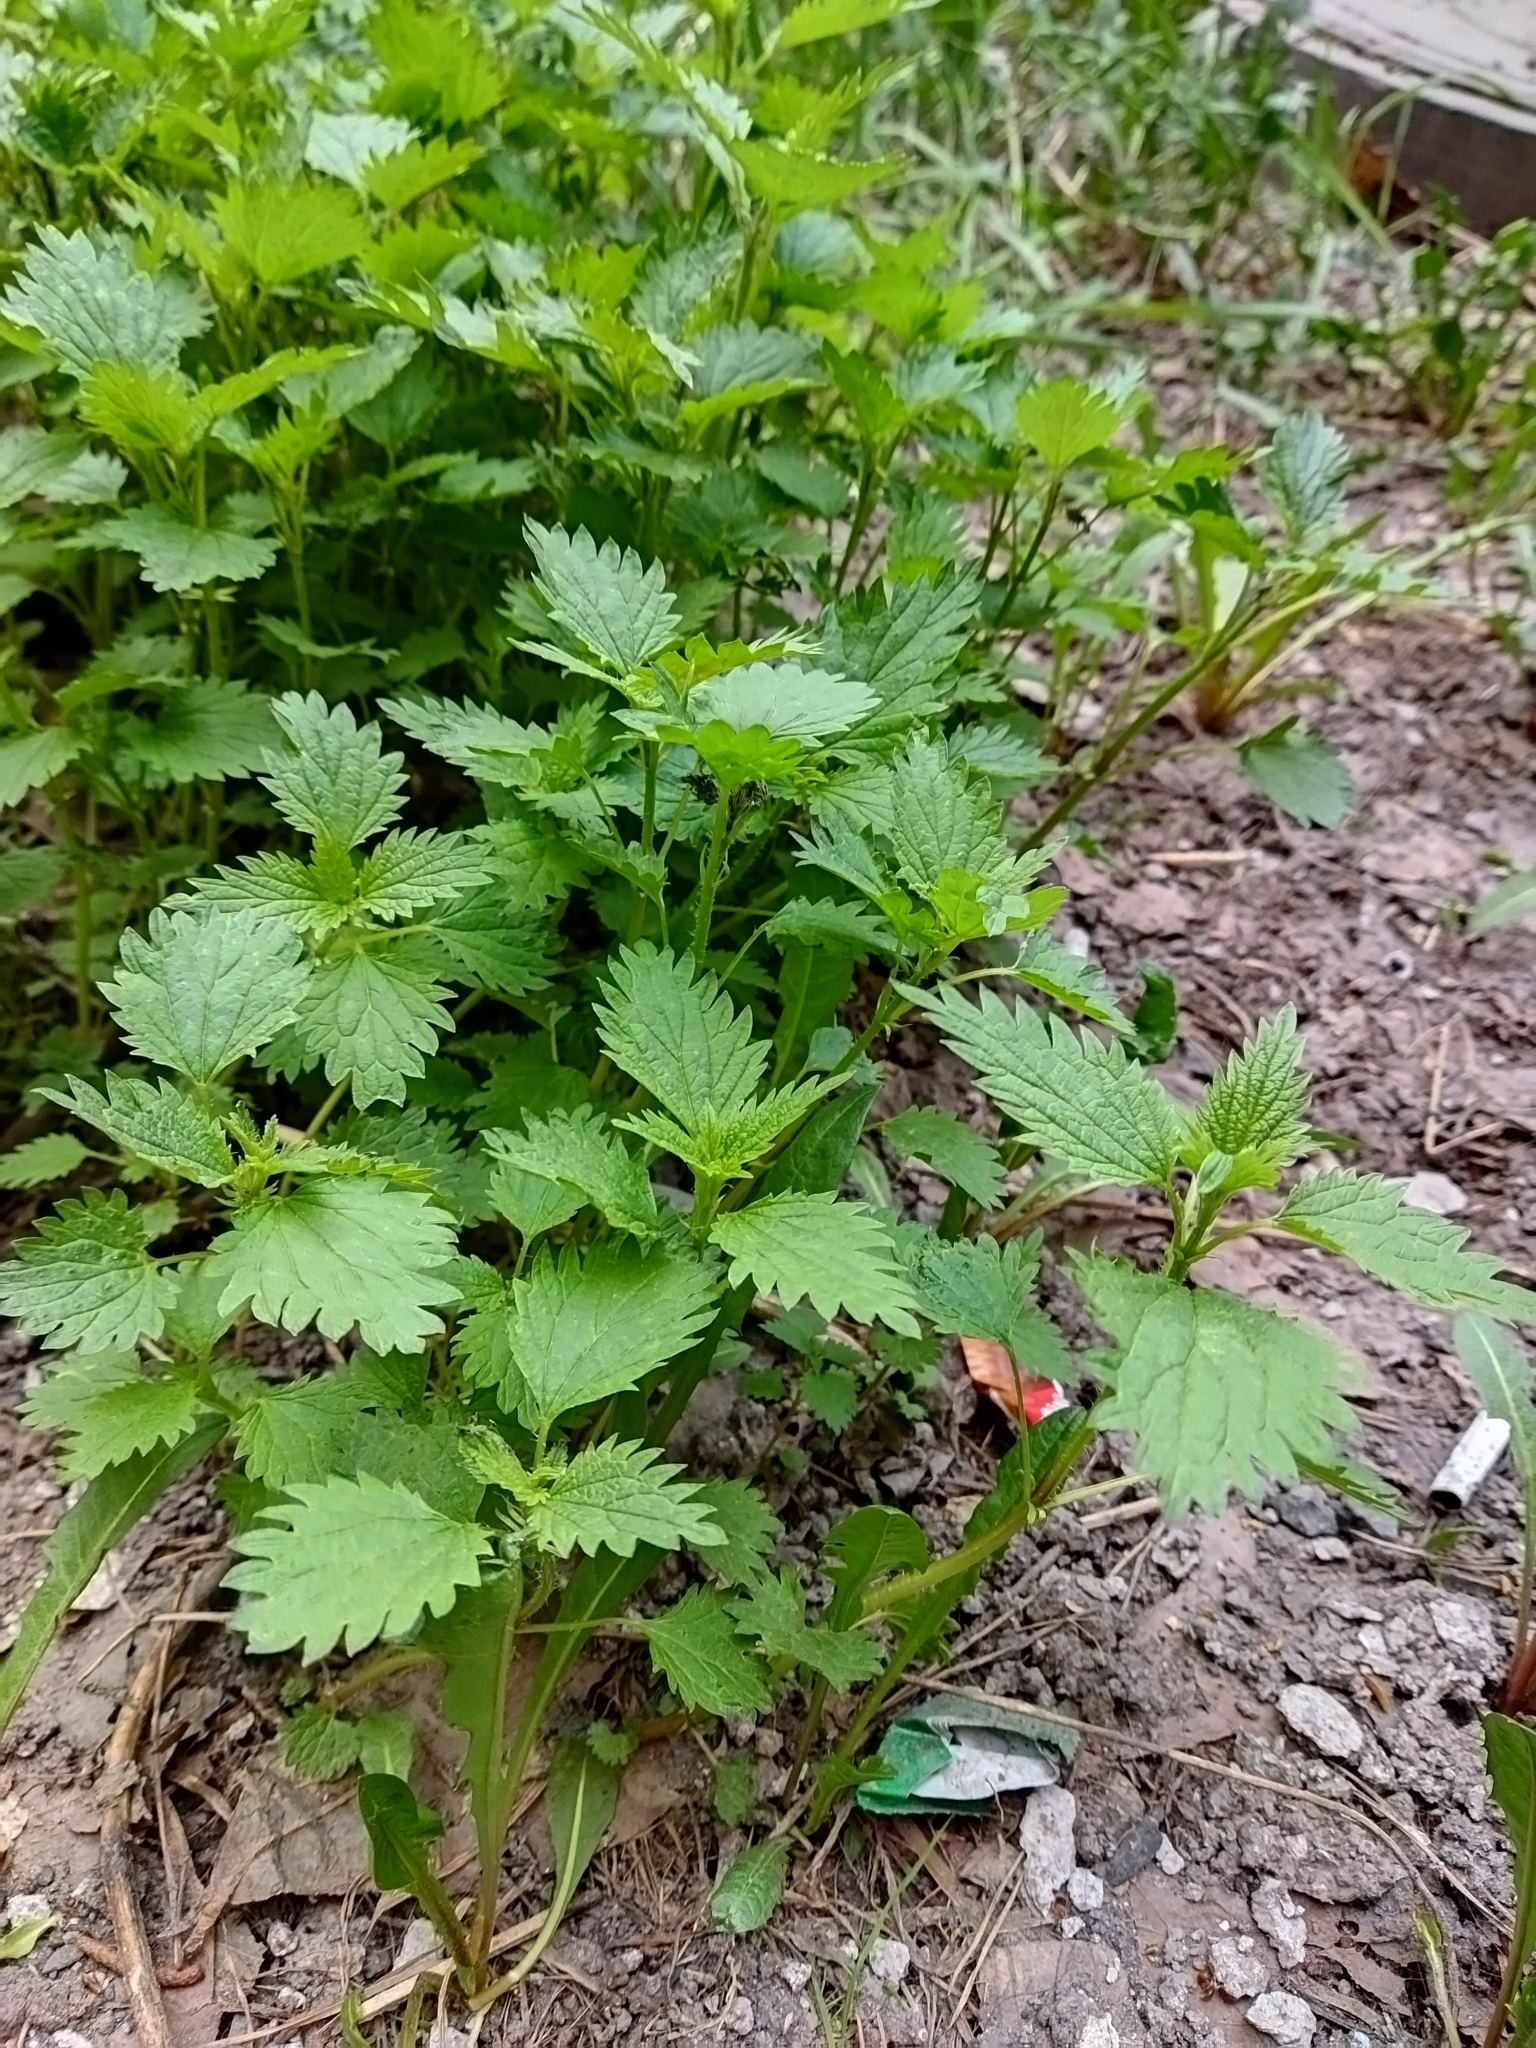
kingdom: Plantae
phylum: Tracheophyta
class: Magnoliopsida
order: Rosales
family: Urticaceae
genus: Urtica
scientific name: Urtica dioica
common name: Common nettle
